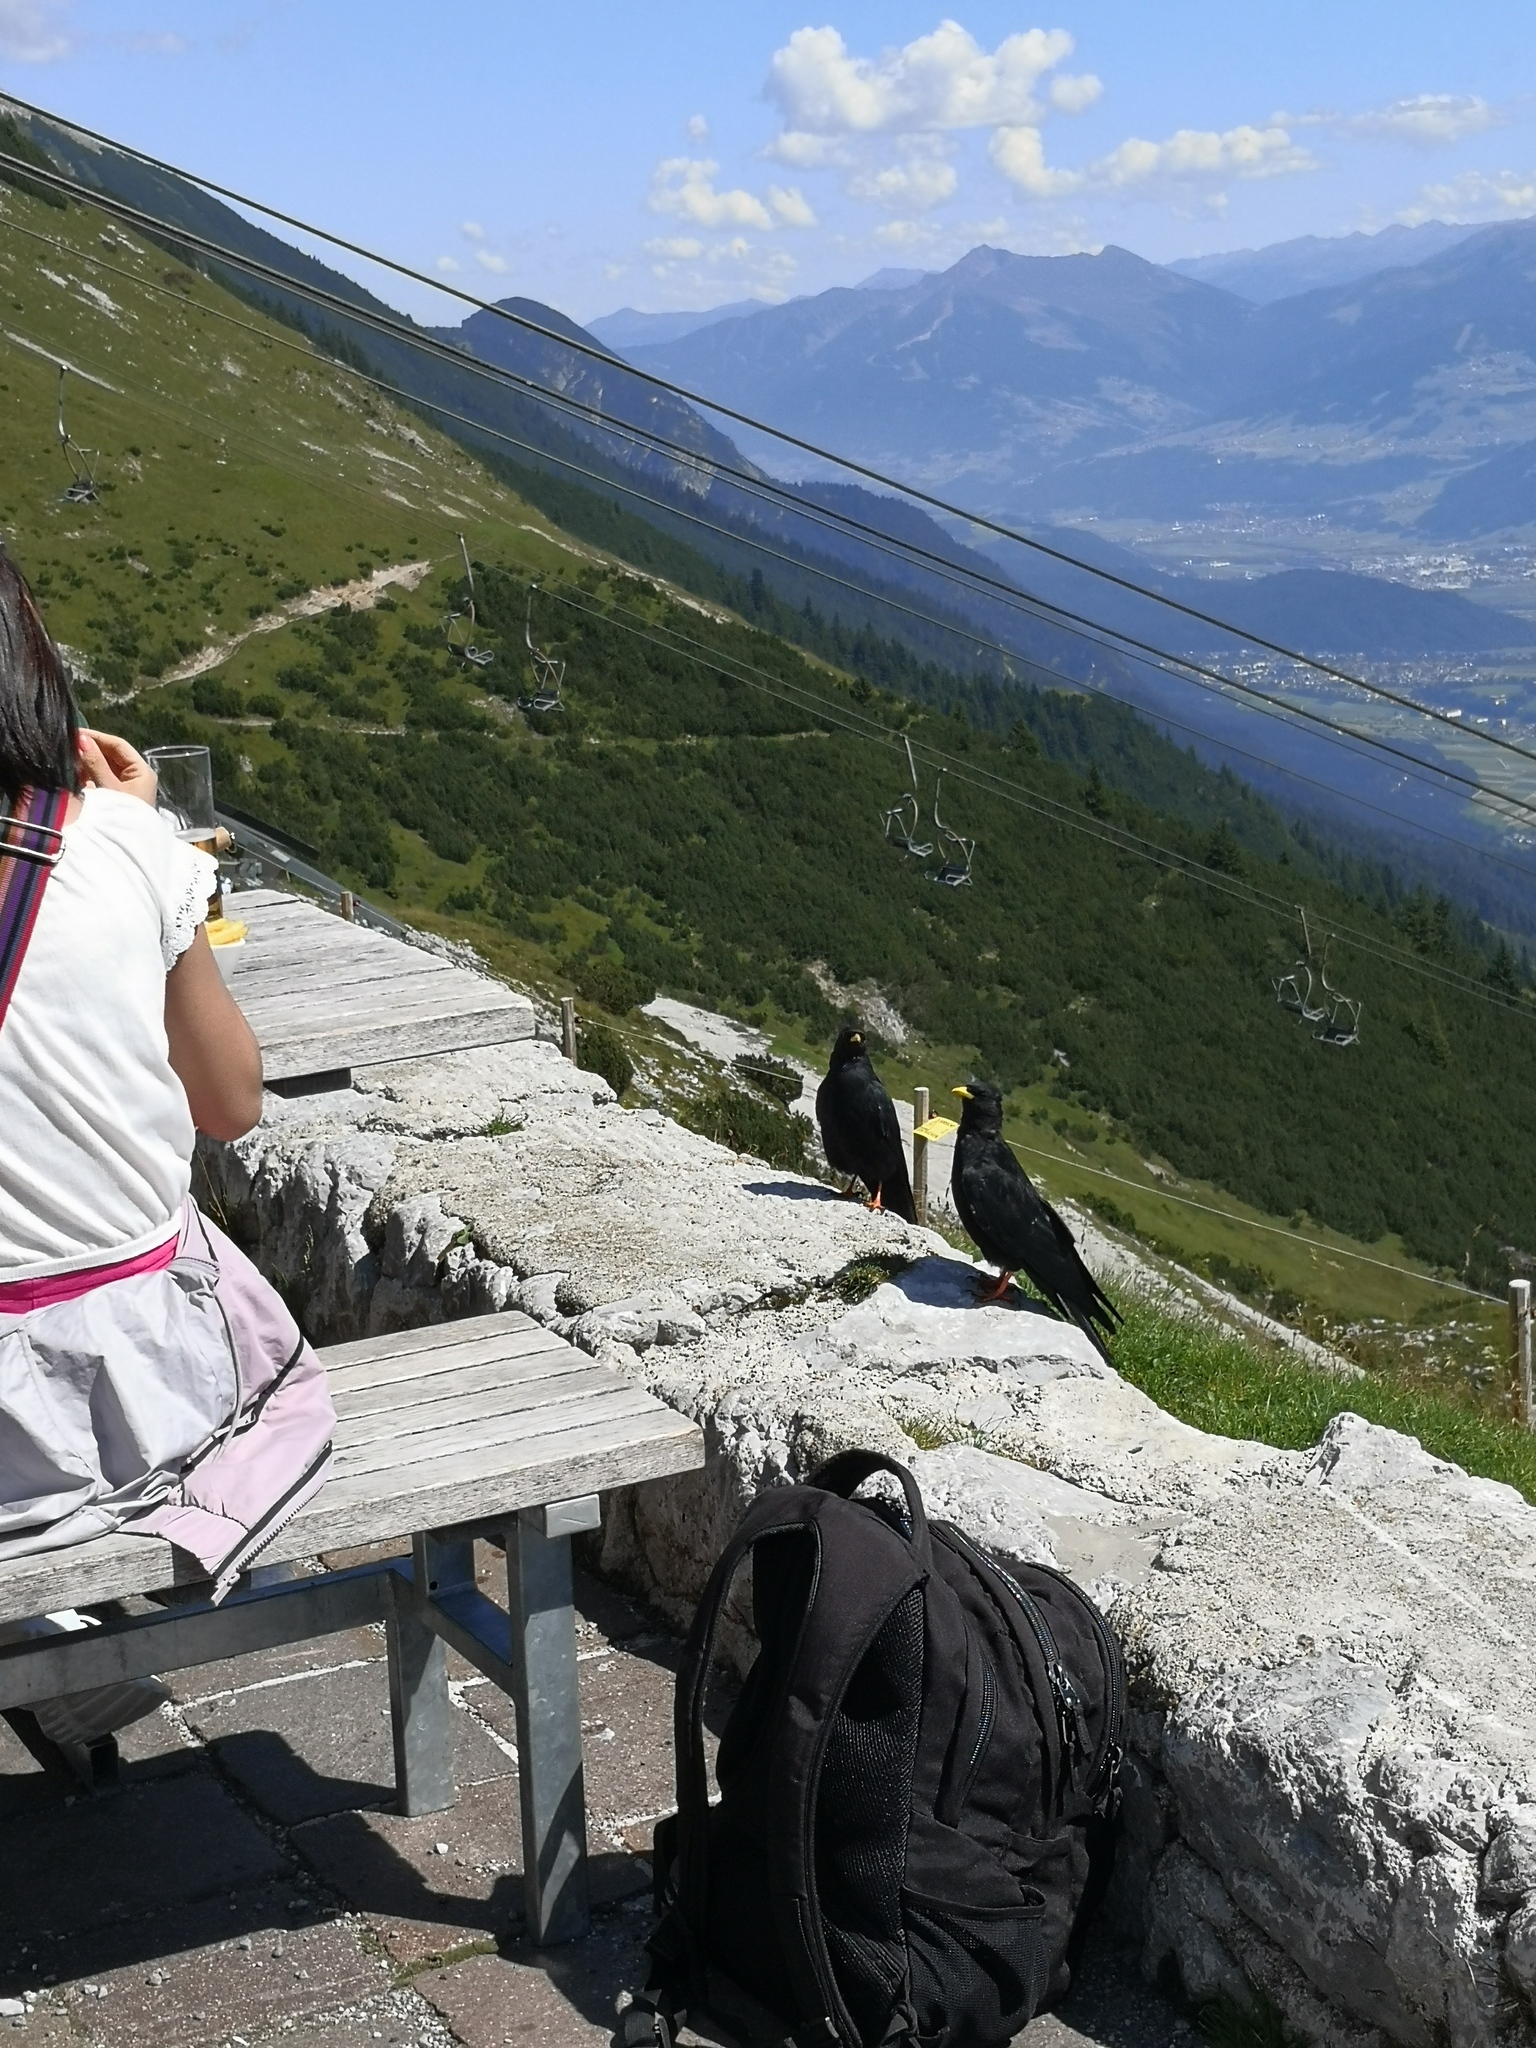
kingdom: Animalia
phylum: Chordata
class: Aves
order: Passeriformes
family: Corvidae
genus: Pyrrhocorax
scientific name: Pyrrhocorax graculus
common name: Alpine chough
